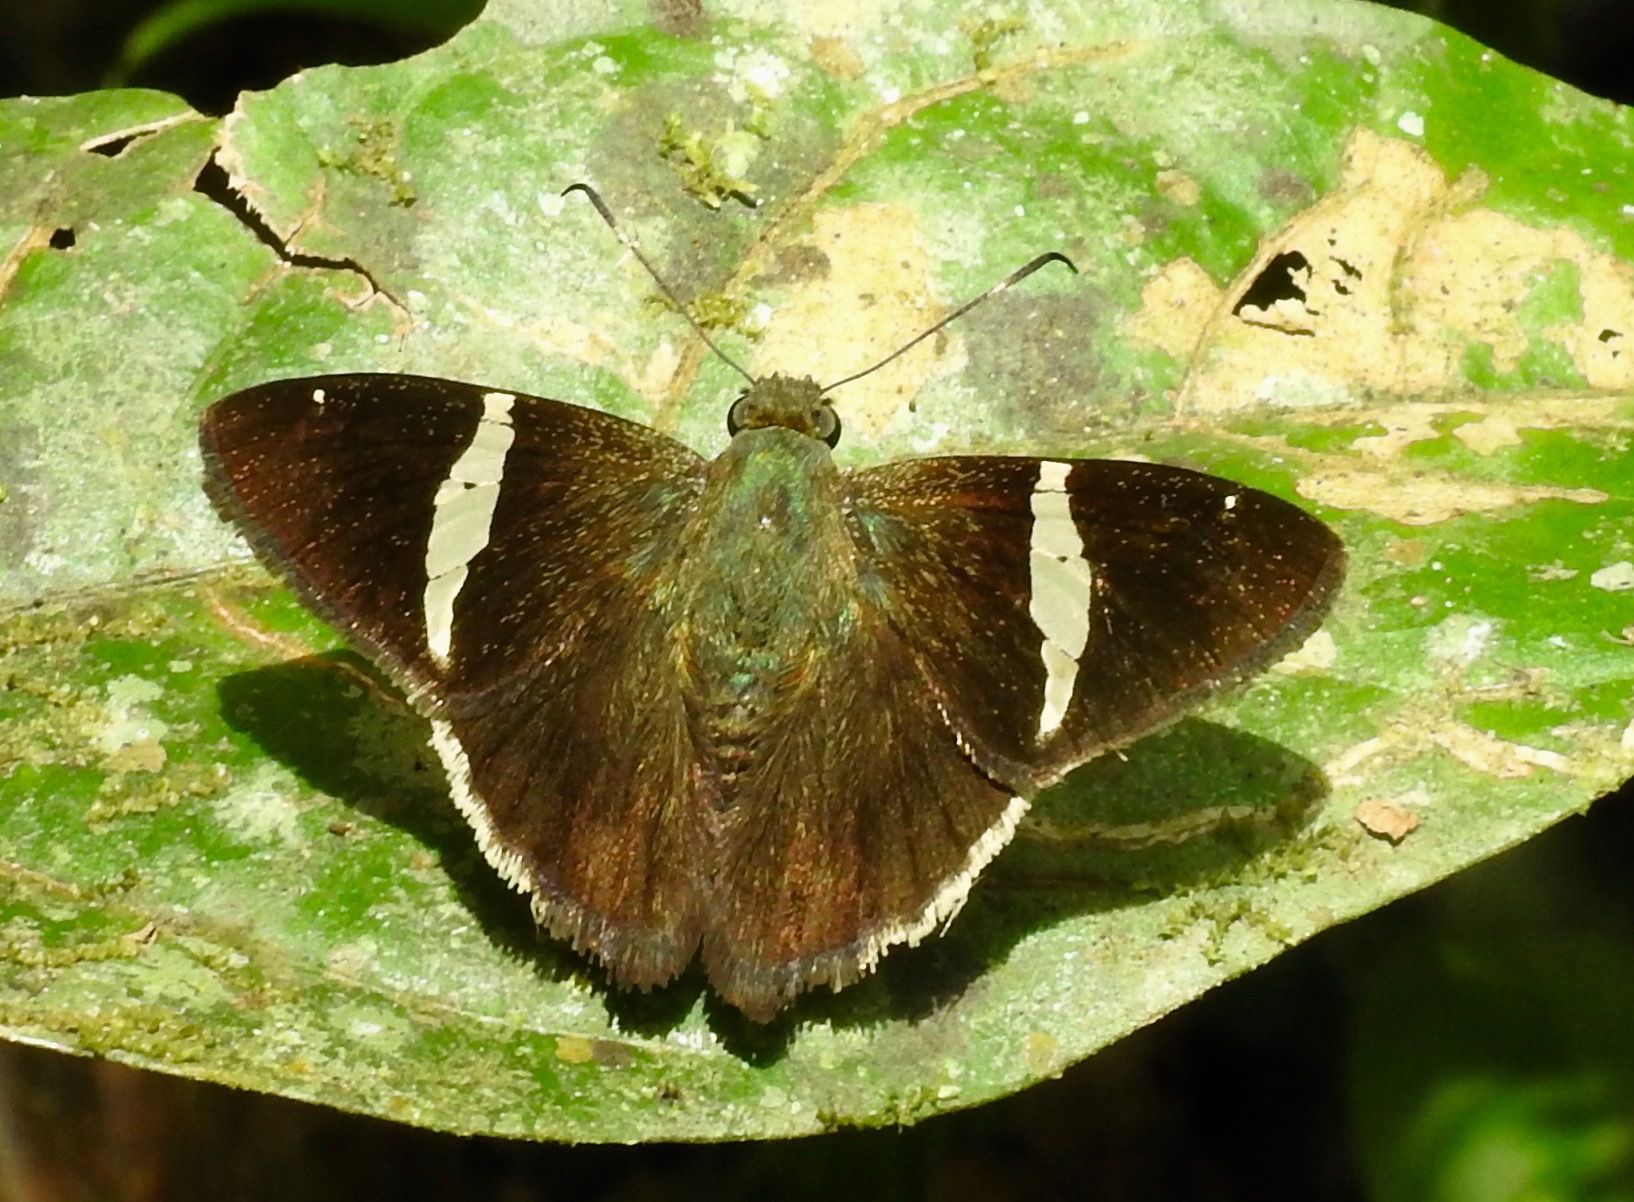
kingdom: Animalia
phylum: Arthropoda
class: Insecta
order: Lepidoptera
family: Hesperiidae
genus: Autochton
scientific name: Autochton longipennis
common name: Spike banded-skipper
